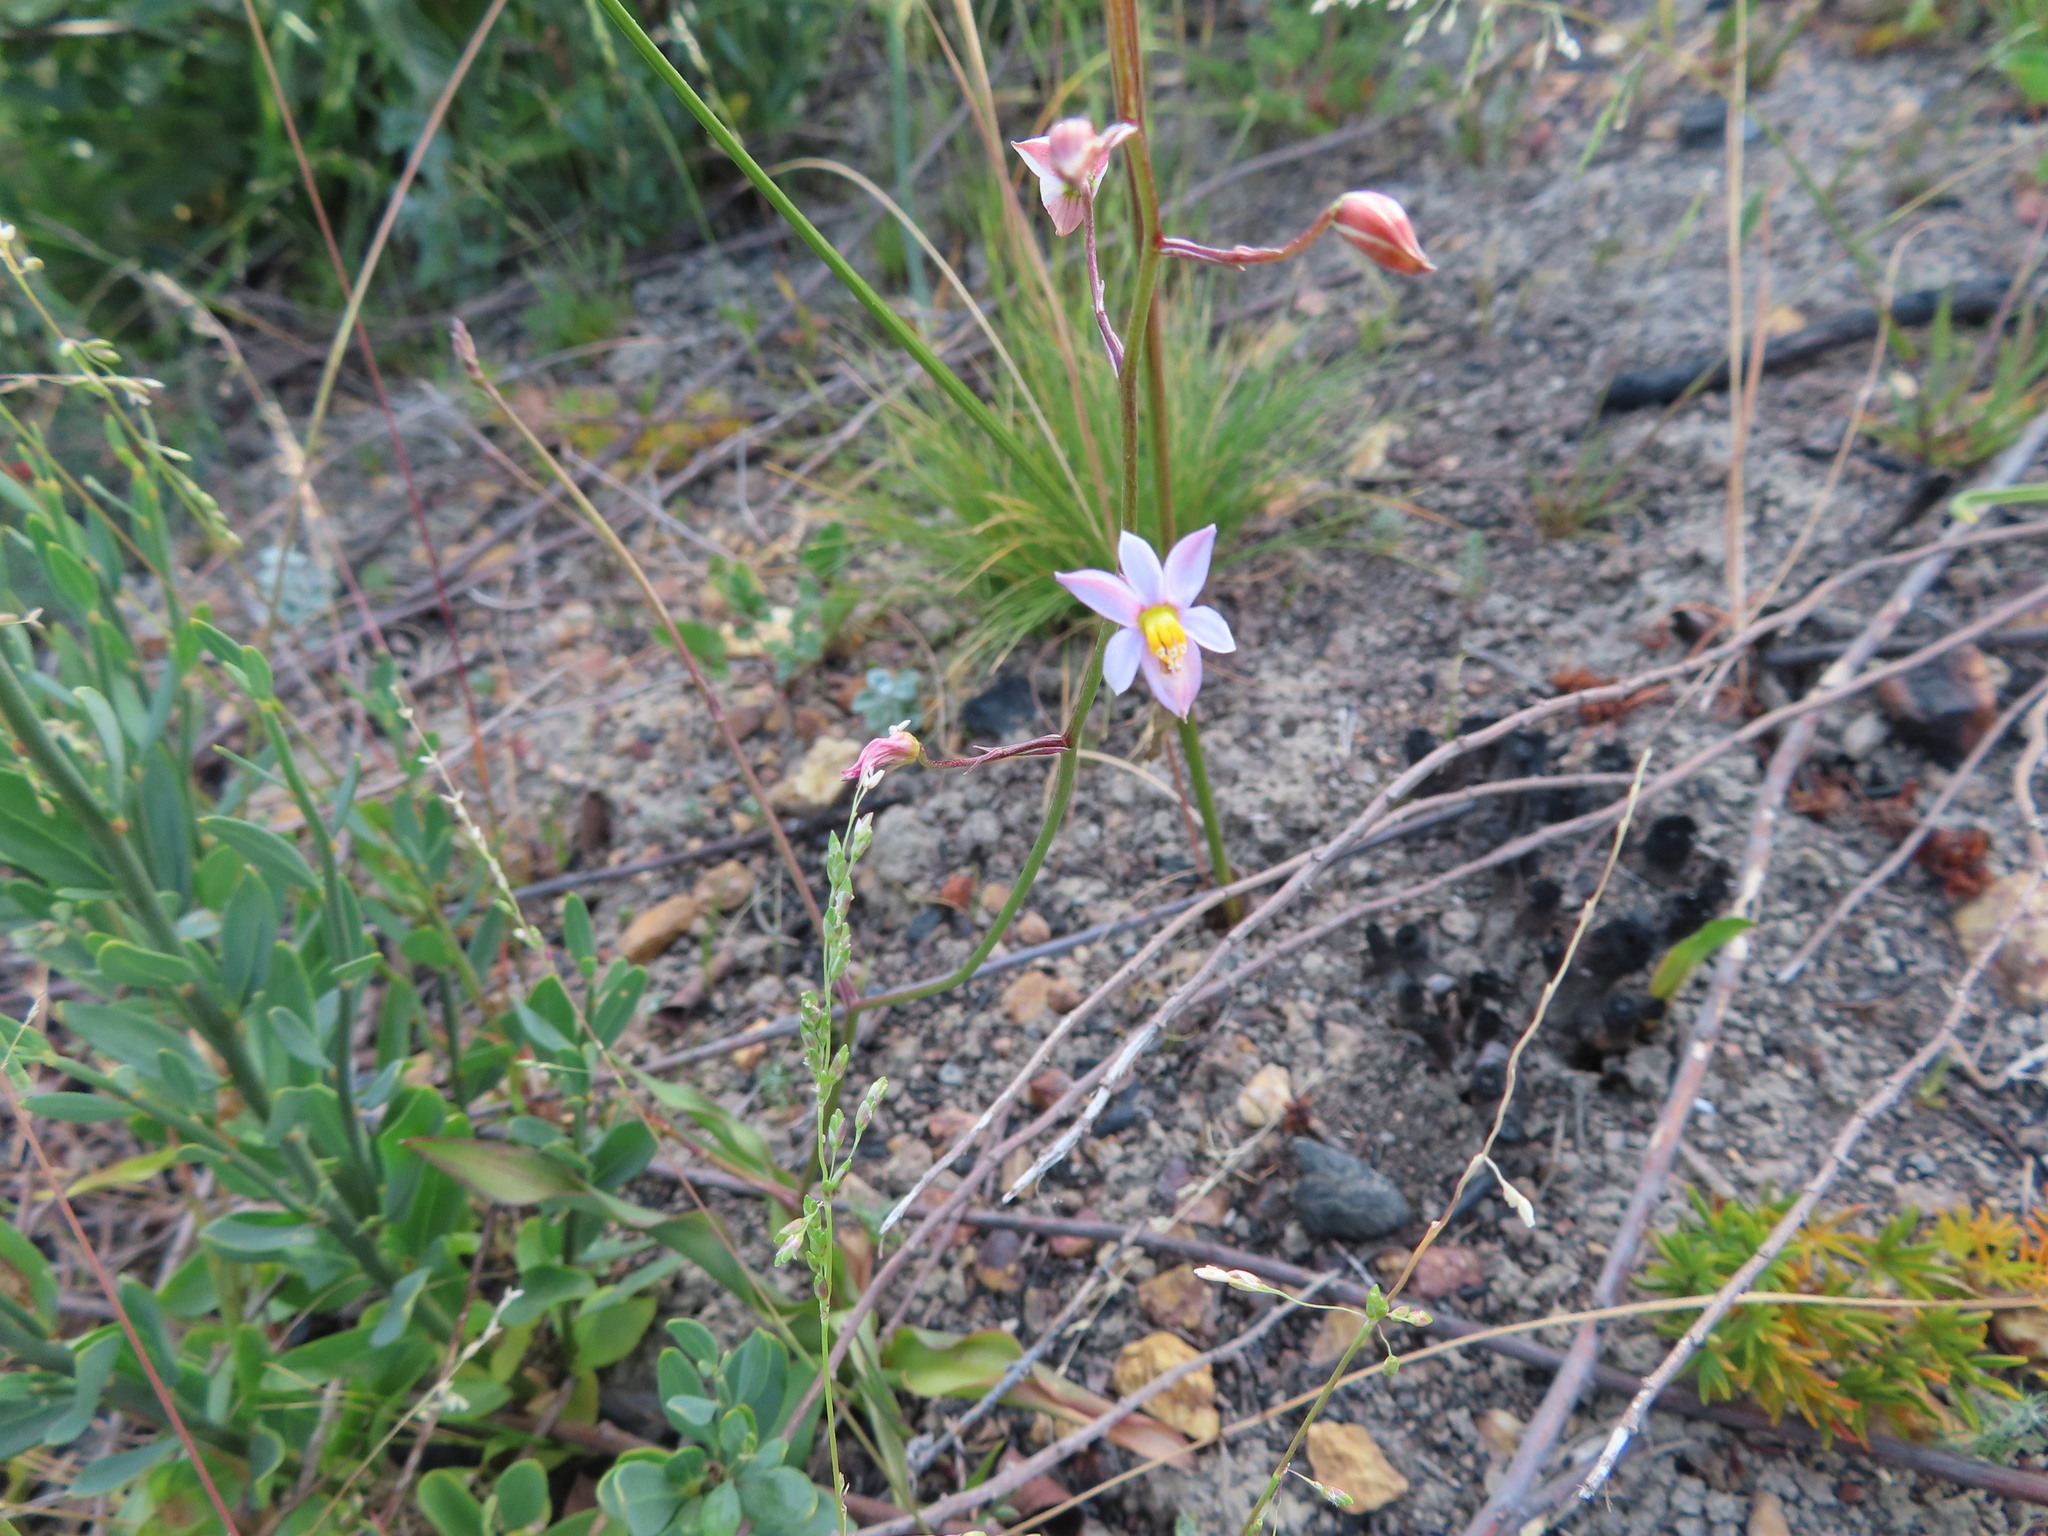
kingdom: Plantae
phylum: Tracheophyta
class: Liliopsida
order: Asparagales
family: Tecophilaeaceae
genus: Cyanella
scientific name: Cyanella hyacinthoides
